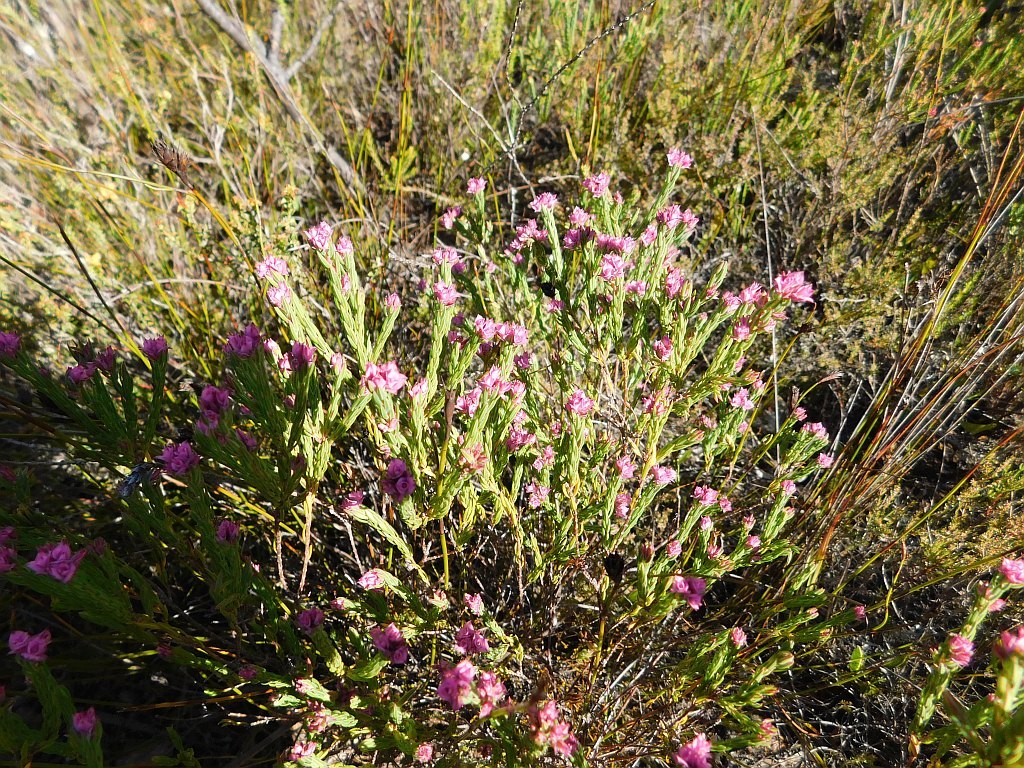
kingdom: Plantae
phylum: Tracheophyta
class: Magnoliopsida
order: Ericales
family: Ericaceae
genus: Erica
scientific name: Erica corifolia
